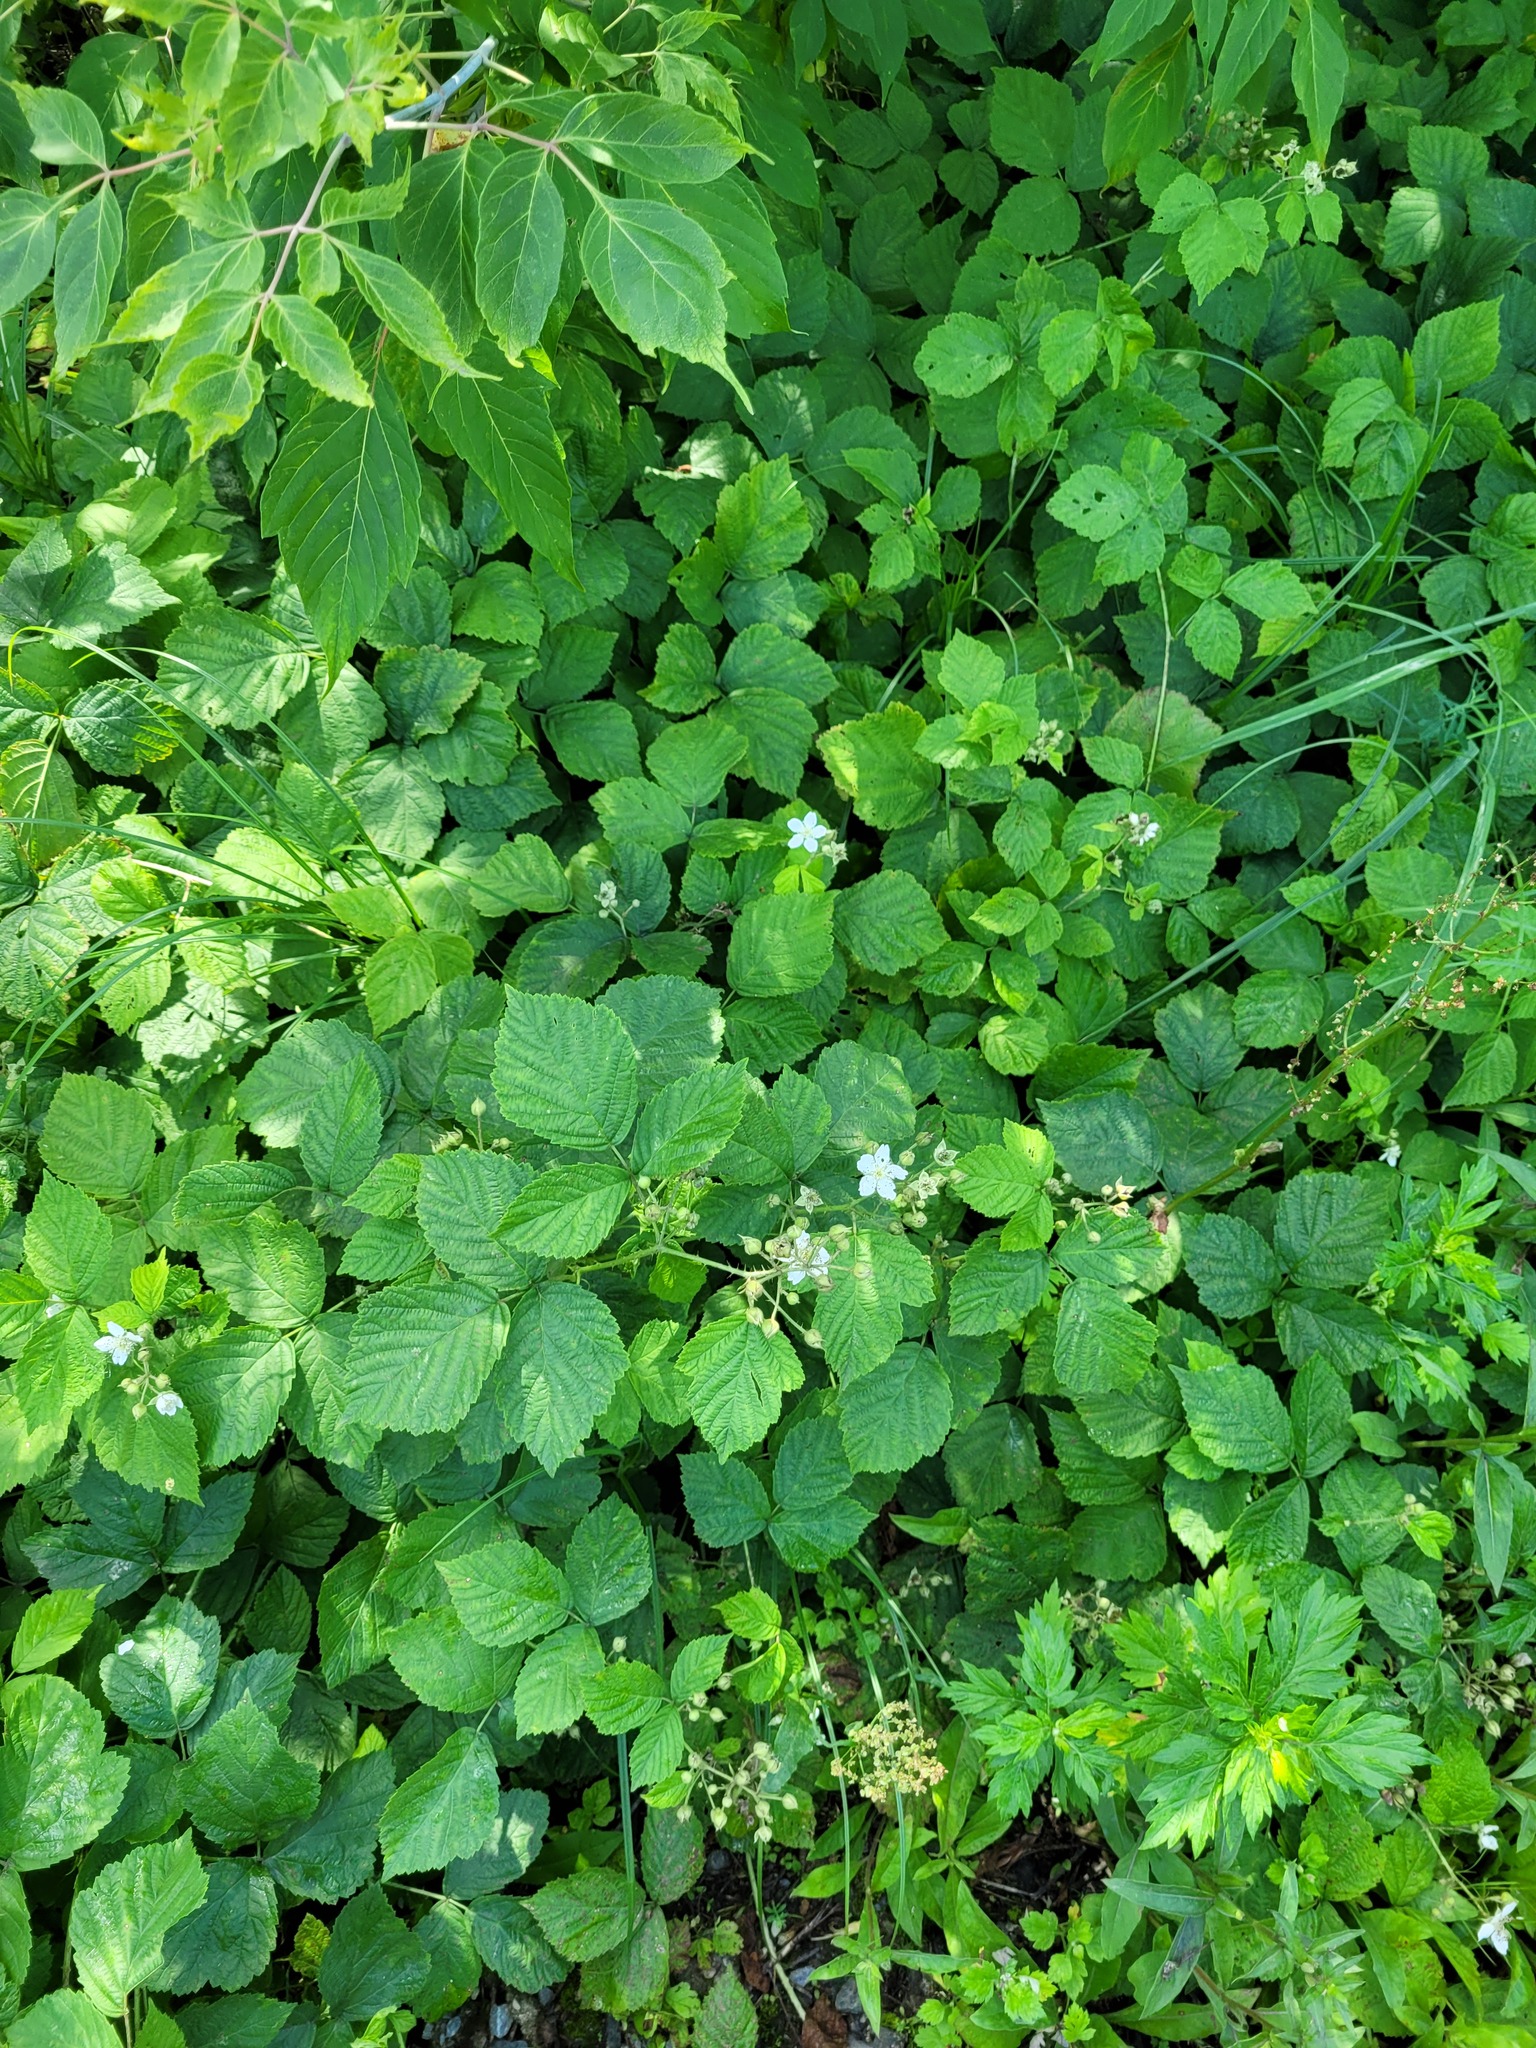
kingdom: Plantae
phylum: Tracheophyta
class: Magnoliopsida
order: Rosales
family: Rosaceae
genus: Rubus
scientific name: Rubus caesius
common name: Dewberry
